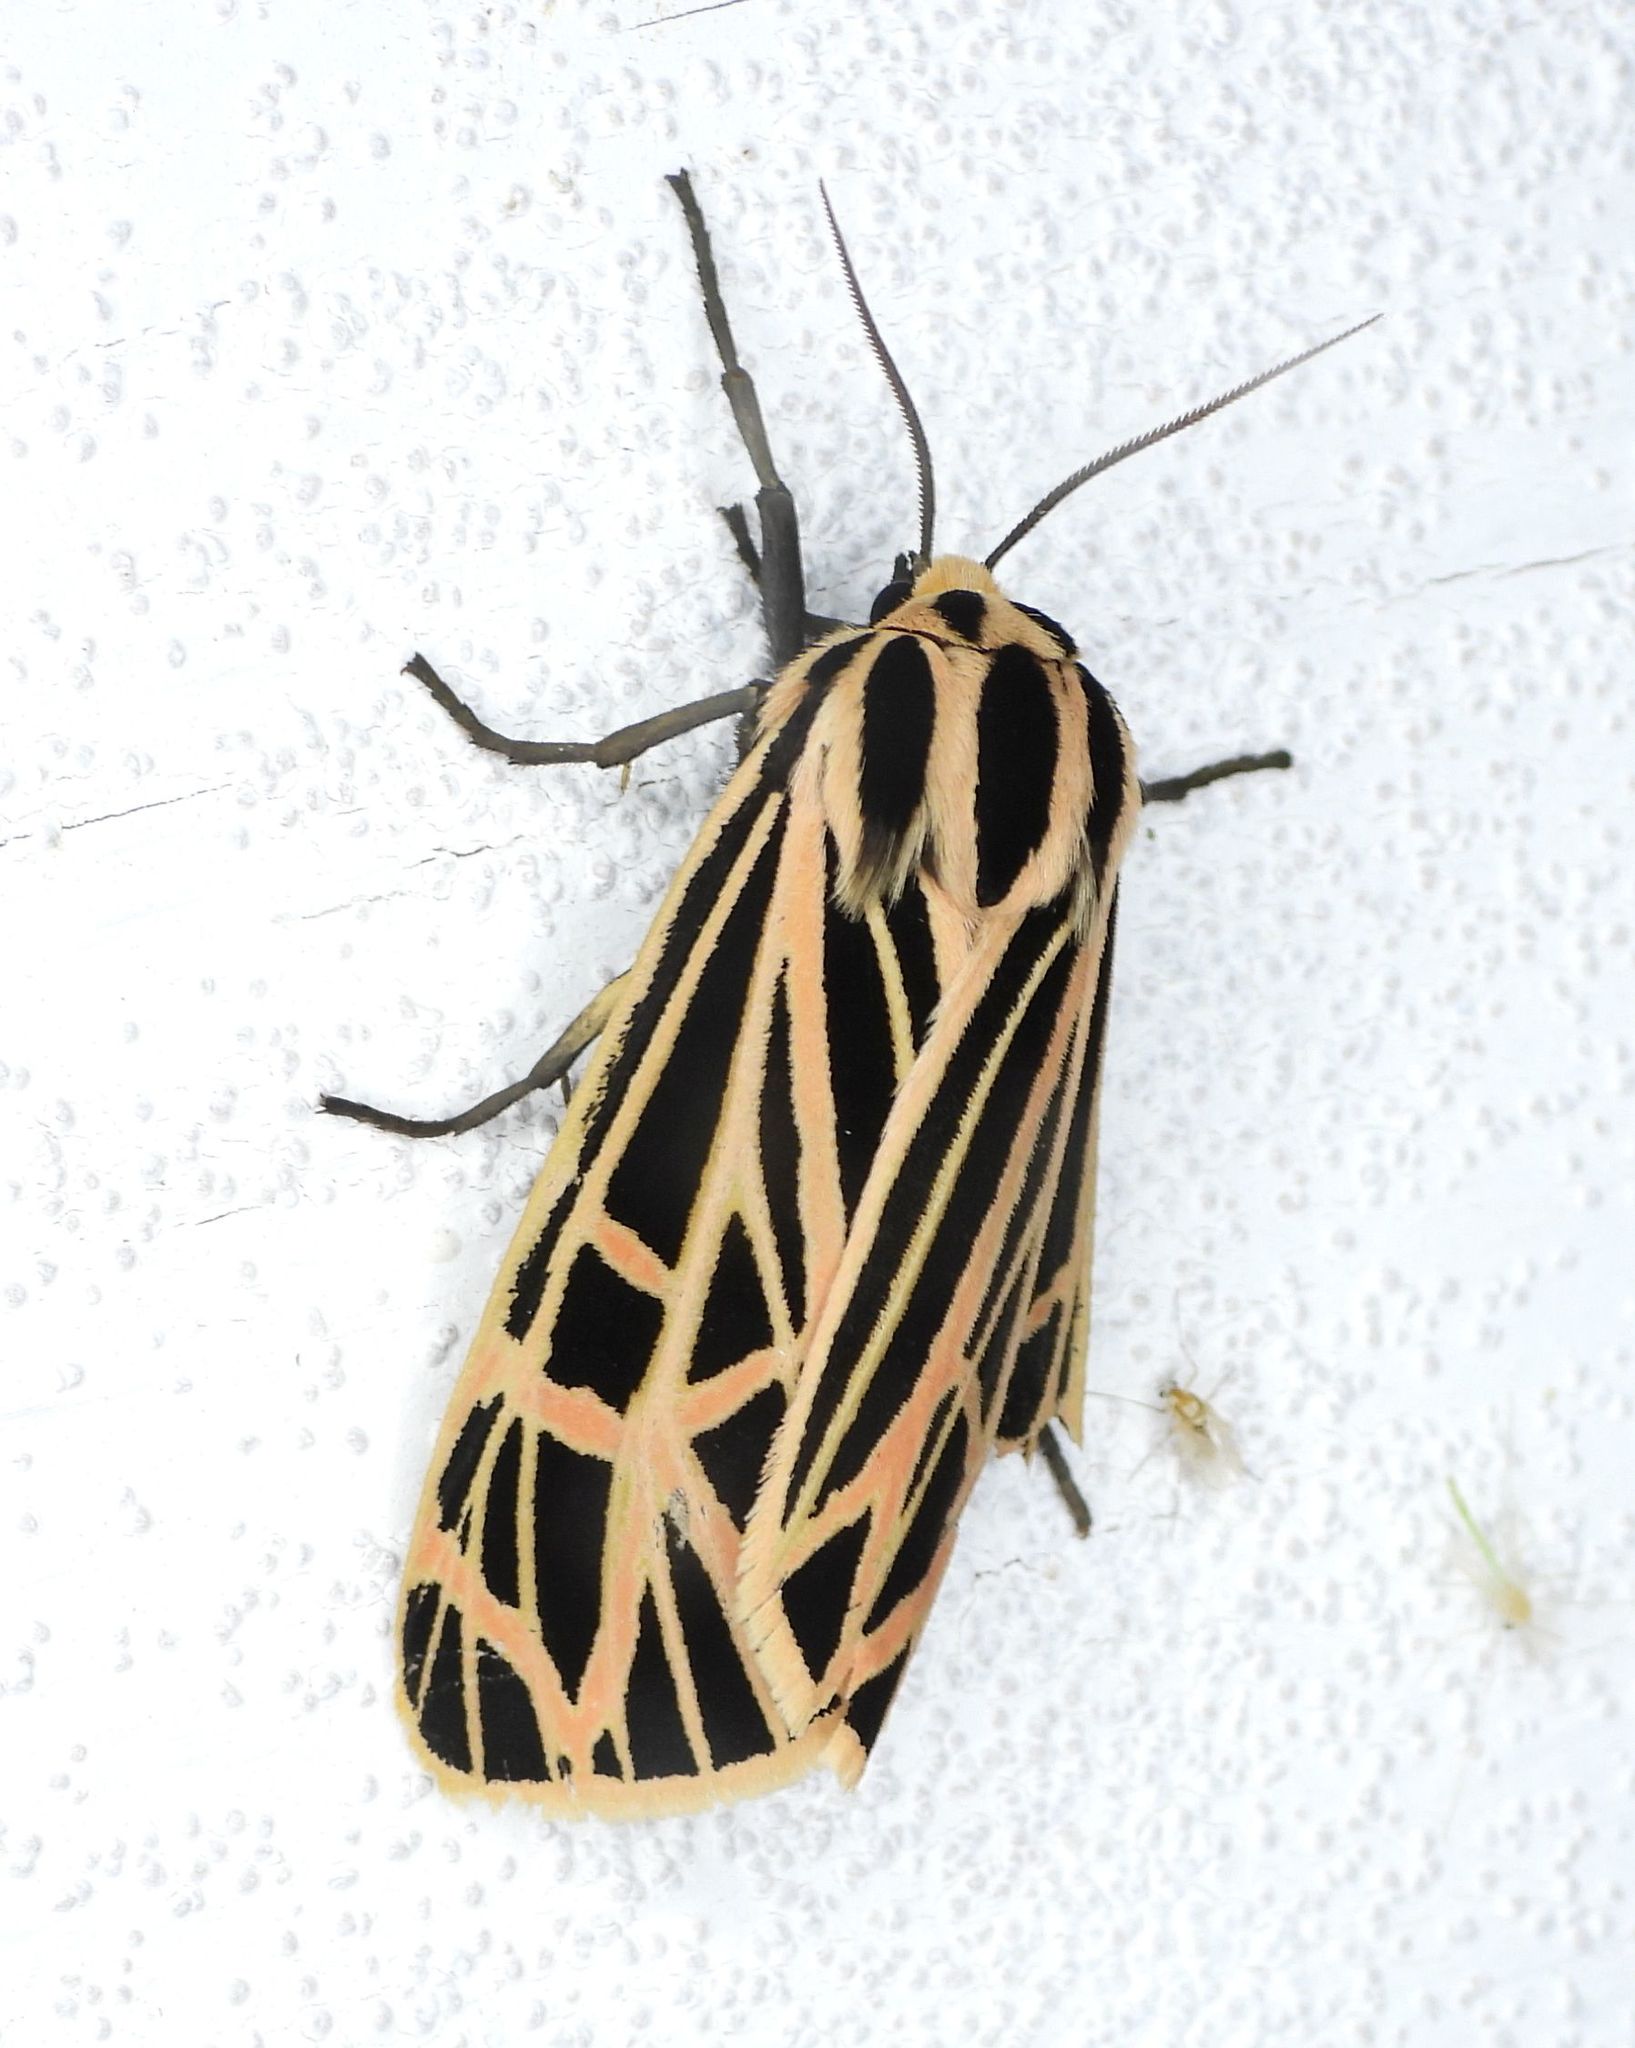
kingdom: Animalia
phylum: Arthropoda
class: Insecta
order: Lepidoptera
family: Erebidae
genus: Grammia
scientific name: Grammia virgo
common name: Virgin tiger moth
